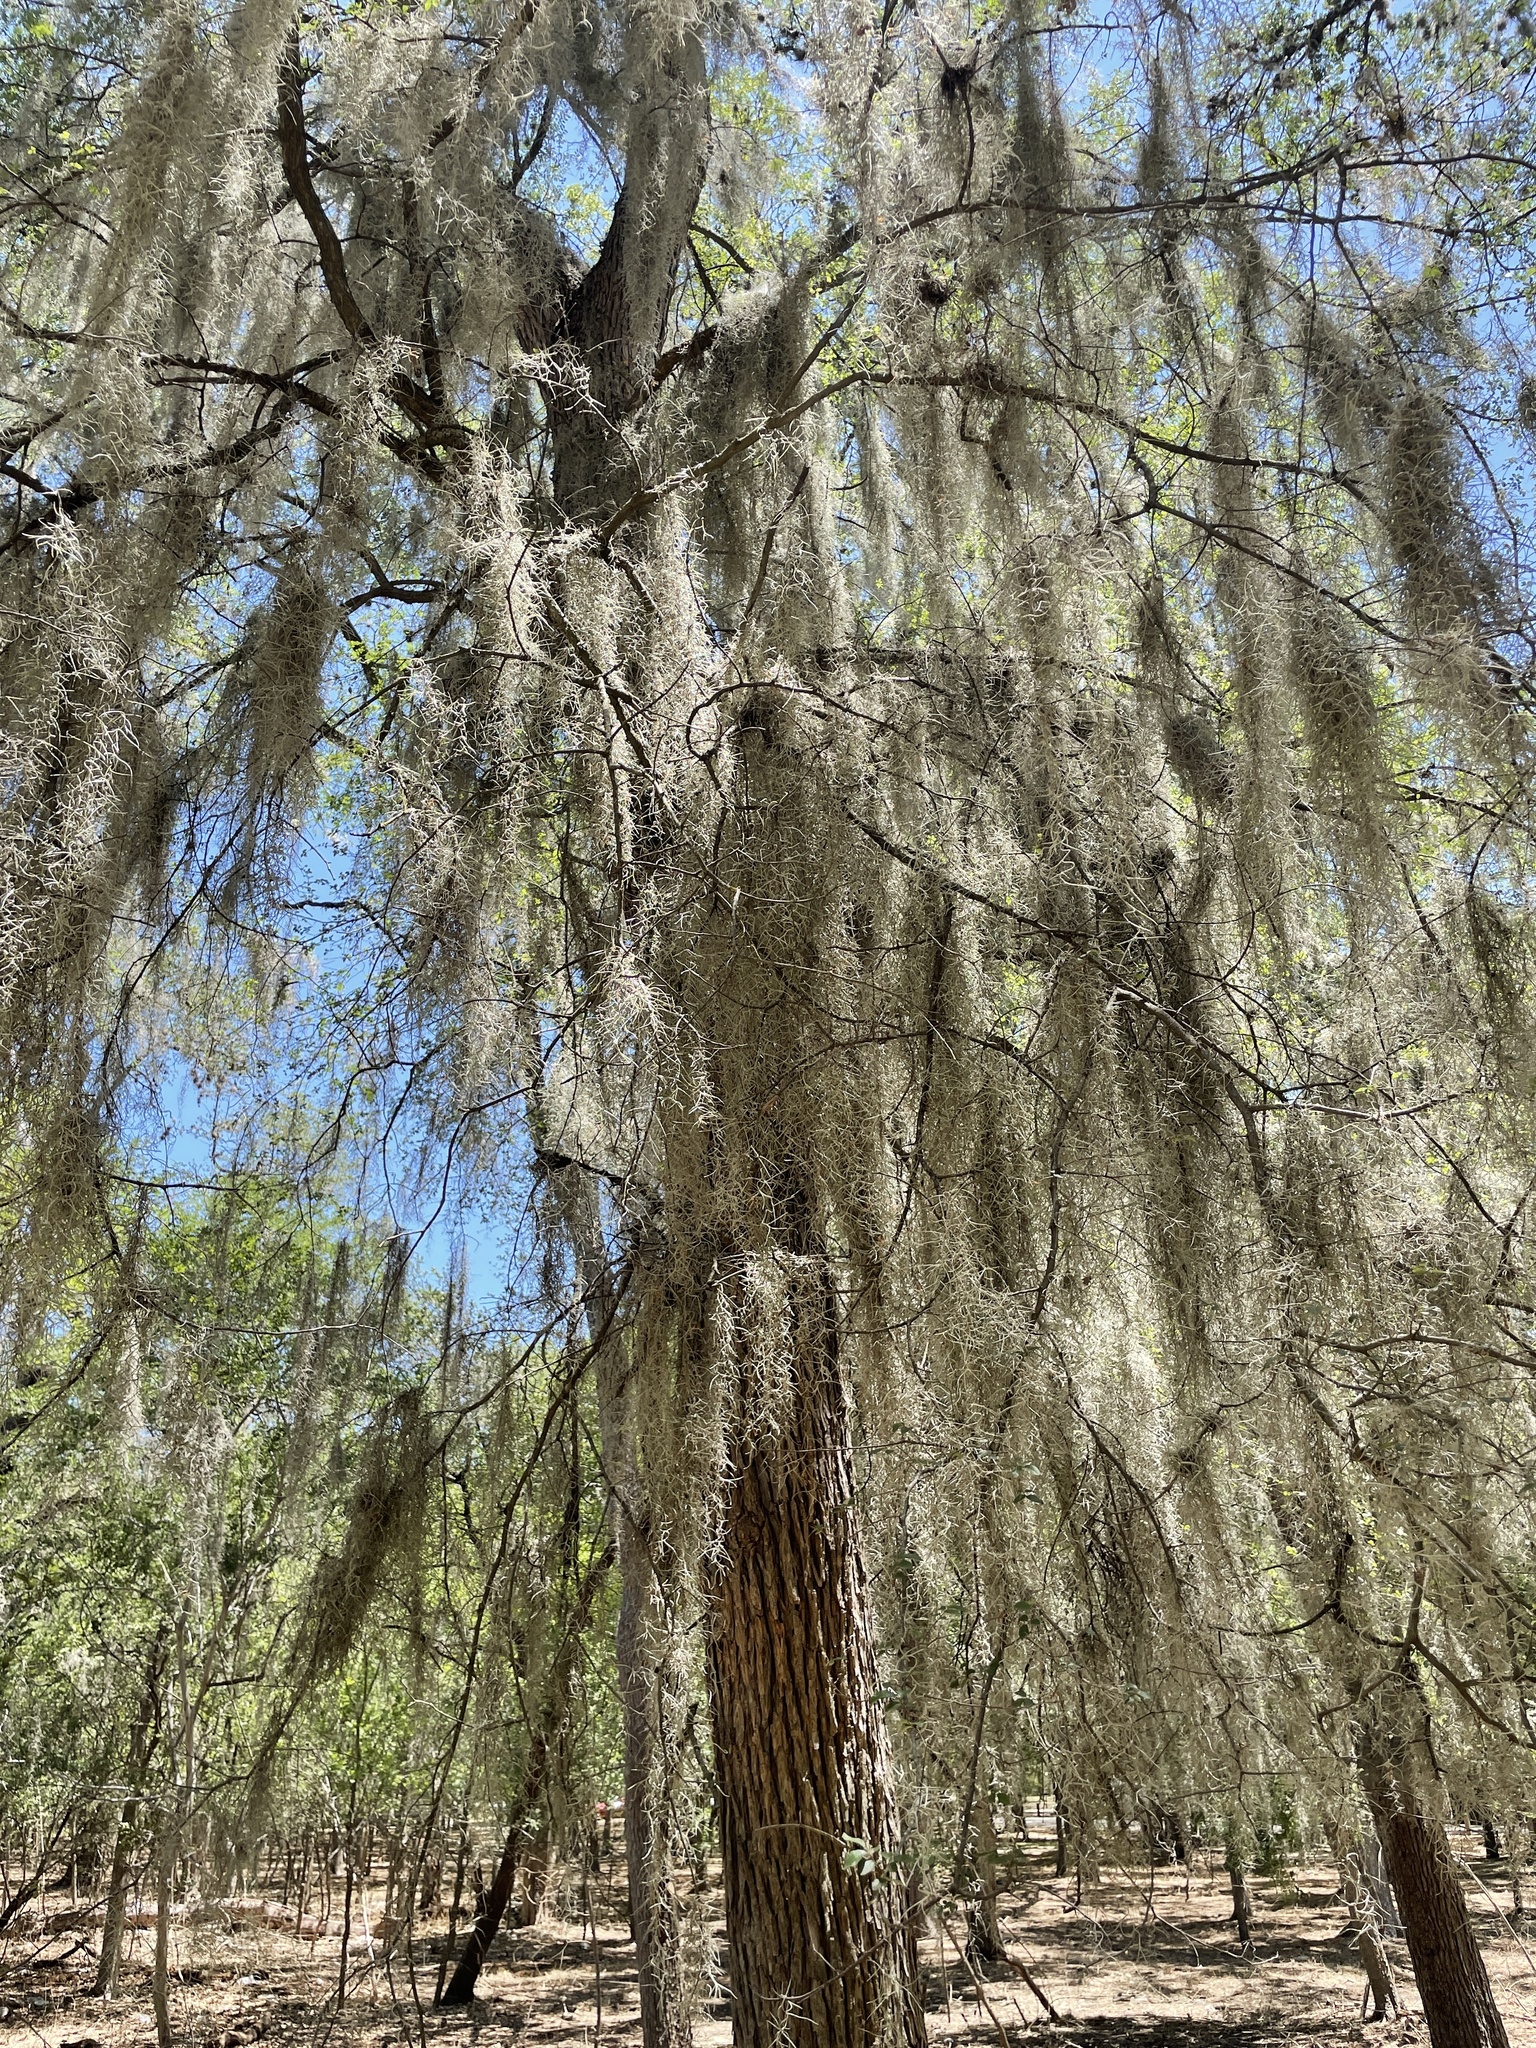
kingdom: Plantae
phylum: Tracheophyta
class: Liliopsida
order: Poales
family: Bromeliaceae
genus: Tillandsia
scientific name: Tillandsia usneoides
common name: Spanish moss
